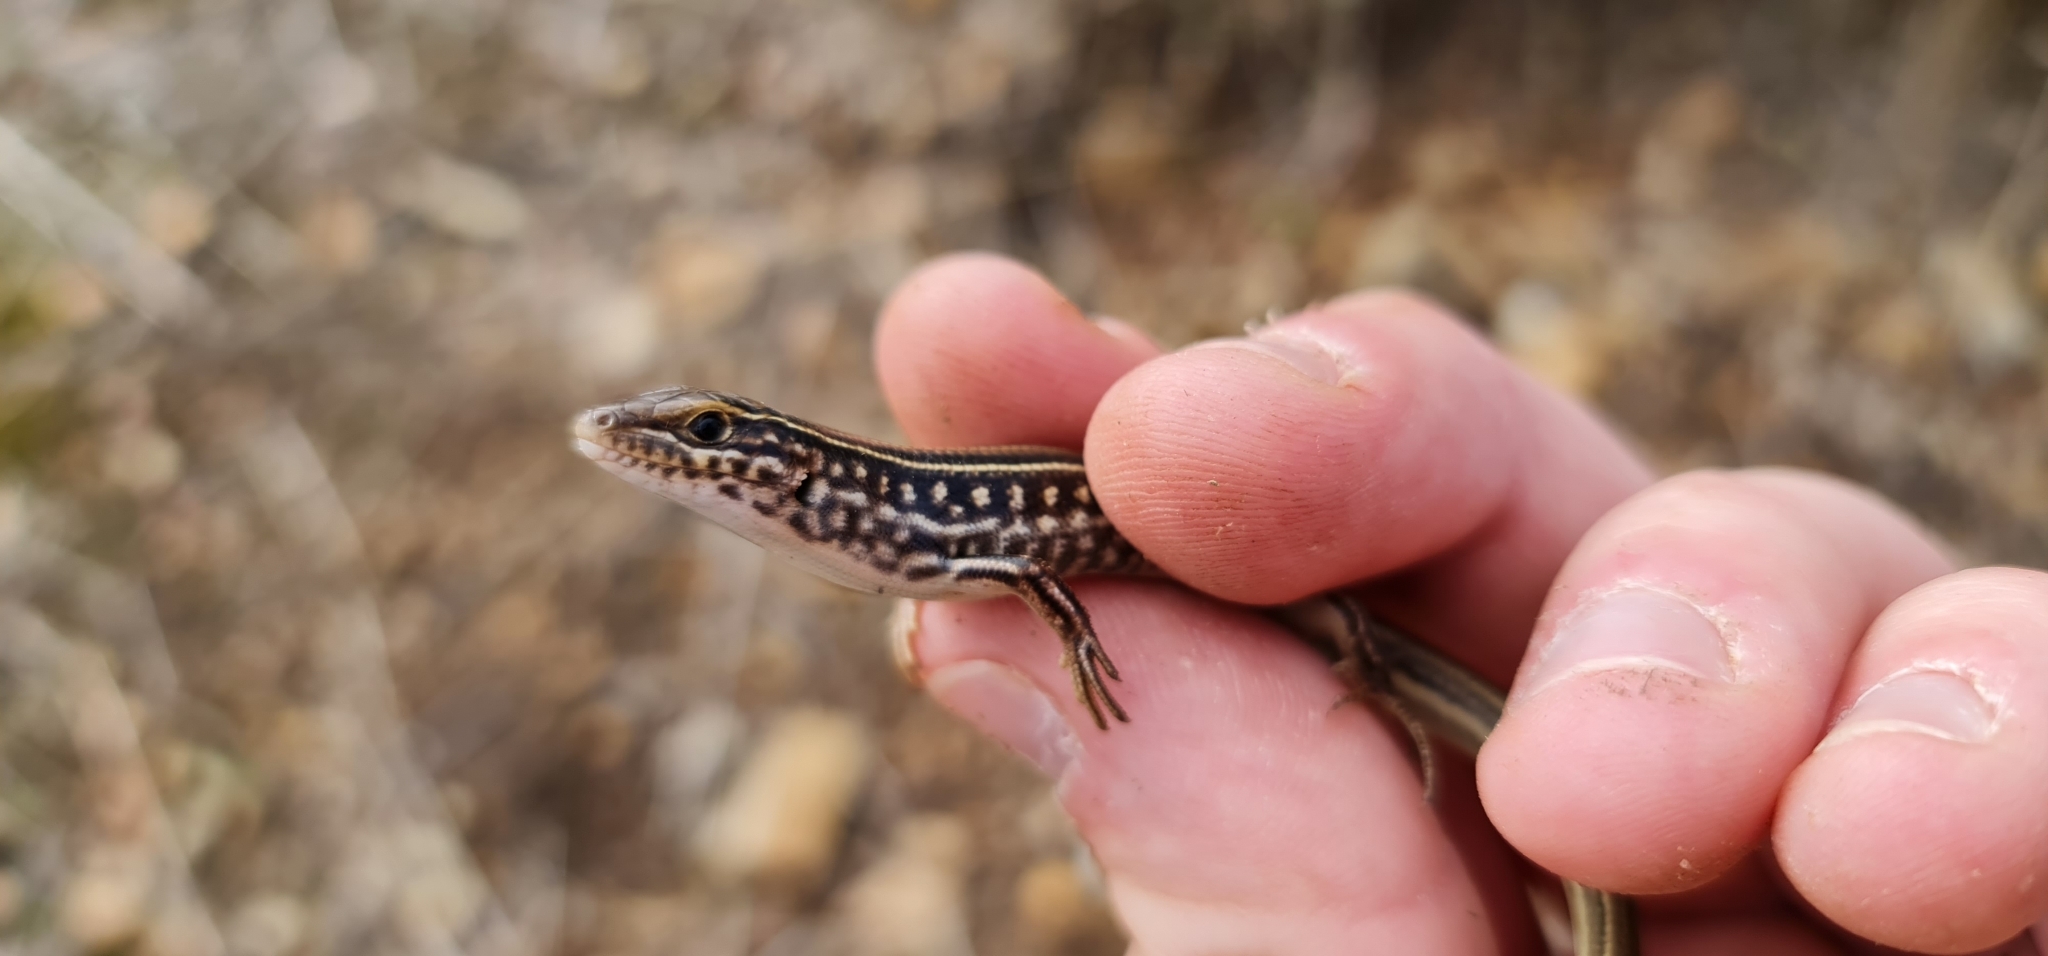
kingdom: Animalia
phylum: Chordata
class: Squamata
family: Scincidae
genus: Ctenotus
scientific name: Ctenotus robustus
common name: Robust ctenotus
